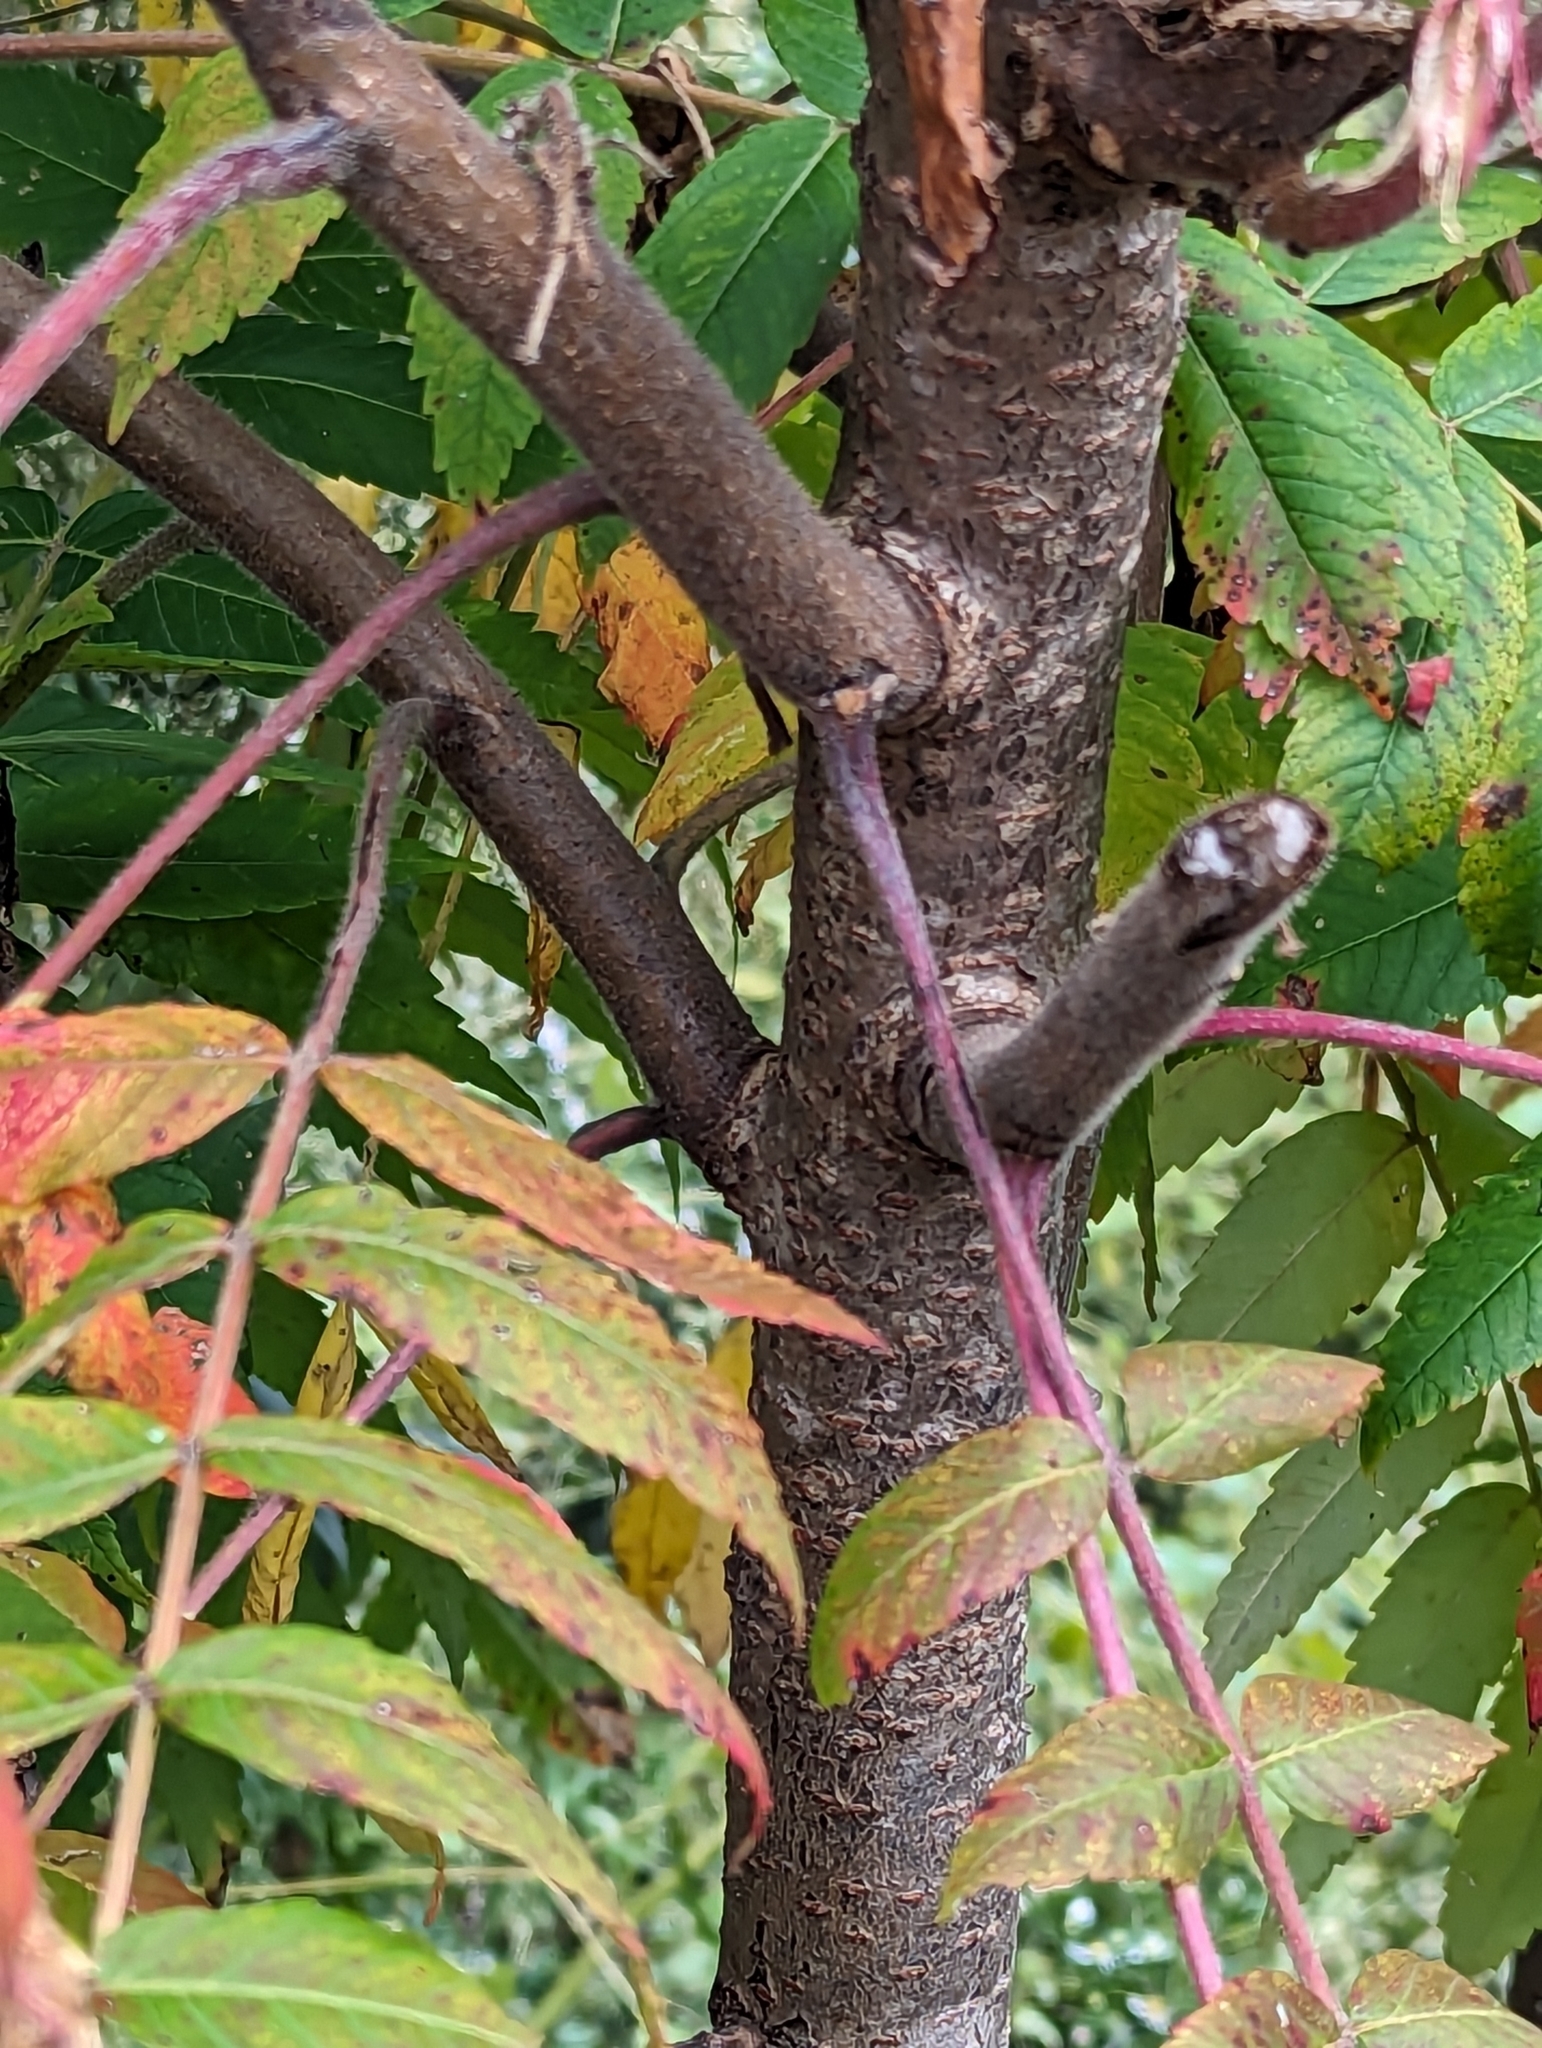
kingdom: Plantae
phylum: Tracheophyta
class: Magnoliopsida
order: Sapindales
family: Anacardiaceae
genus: Rhus
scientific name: Rhus typhina
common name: Staghorn sumac
